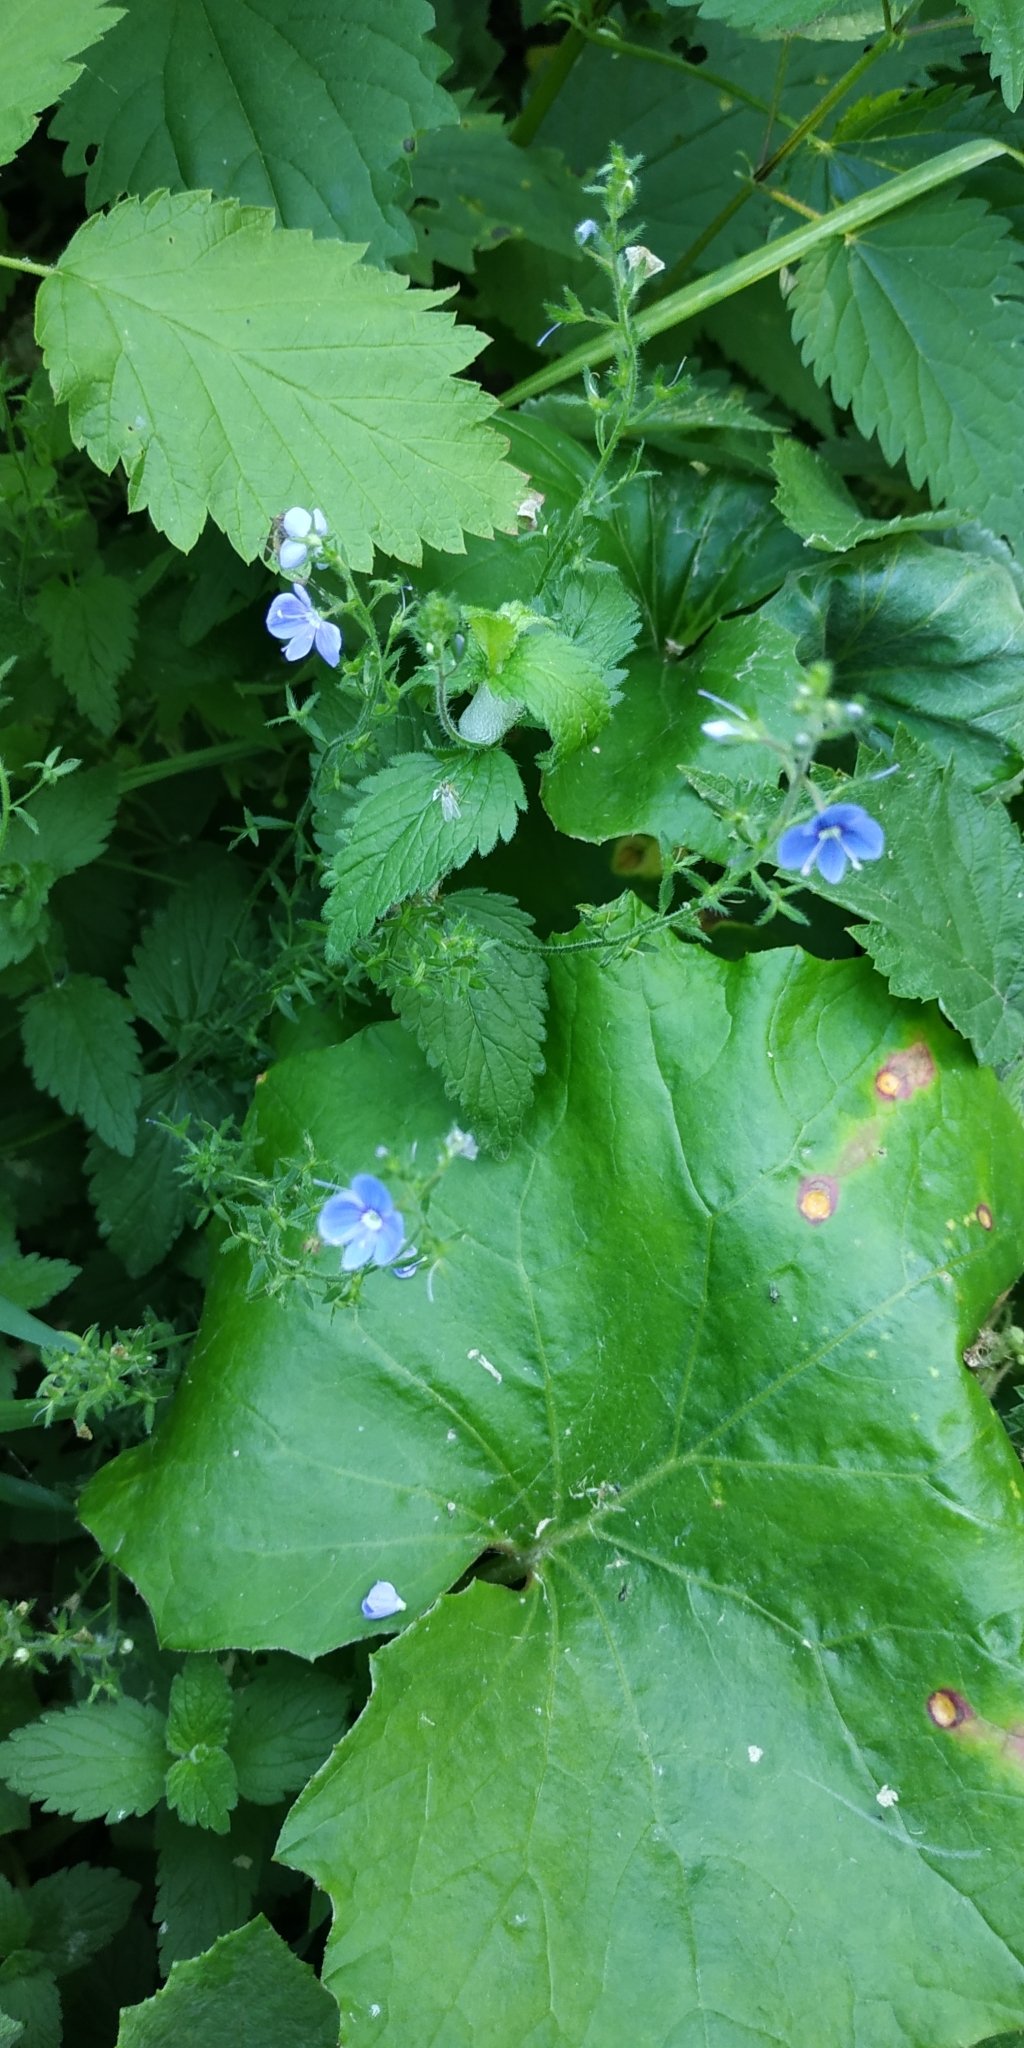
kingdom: Plantae
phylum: Tracheophyta
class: Magnoliopsida
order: Lamiales
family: Plantaginaceae
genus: Veronica
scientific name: Veronica chamaedrys
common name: Germander speedwell
